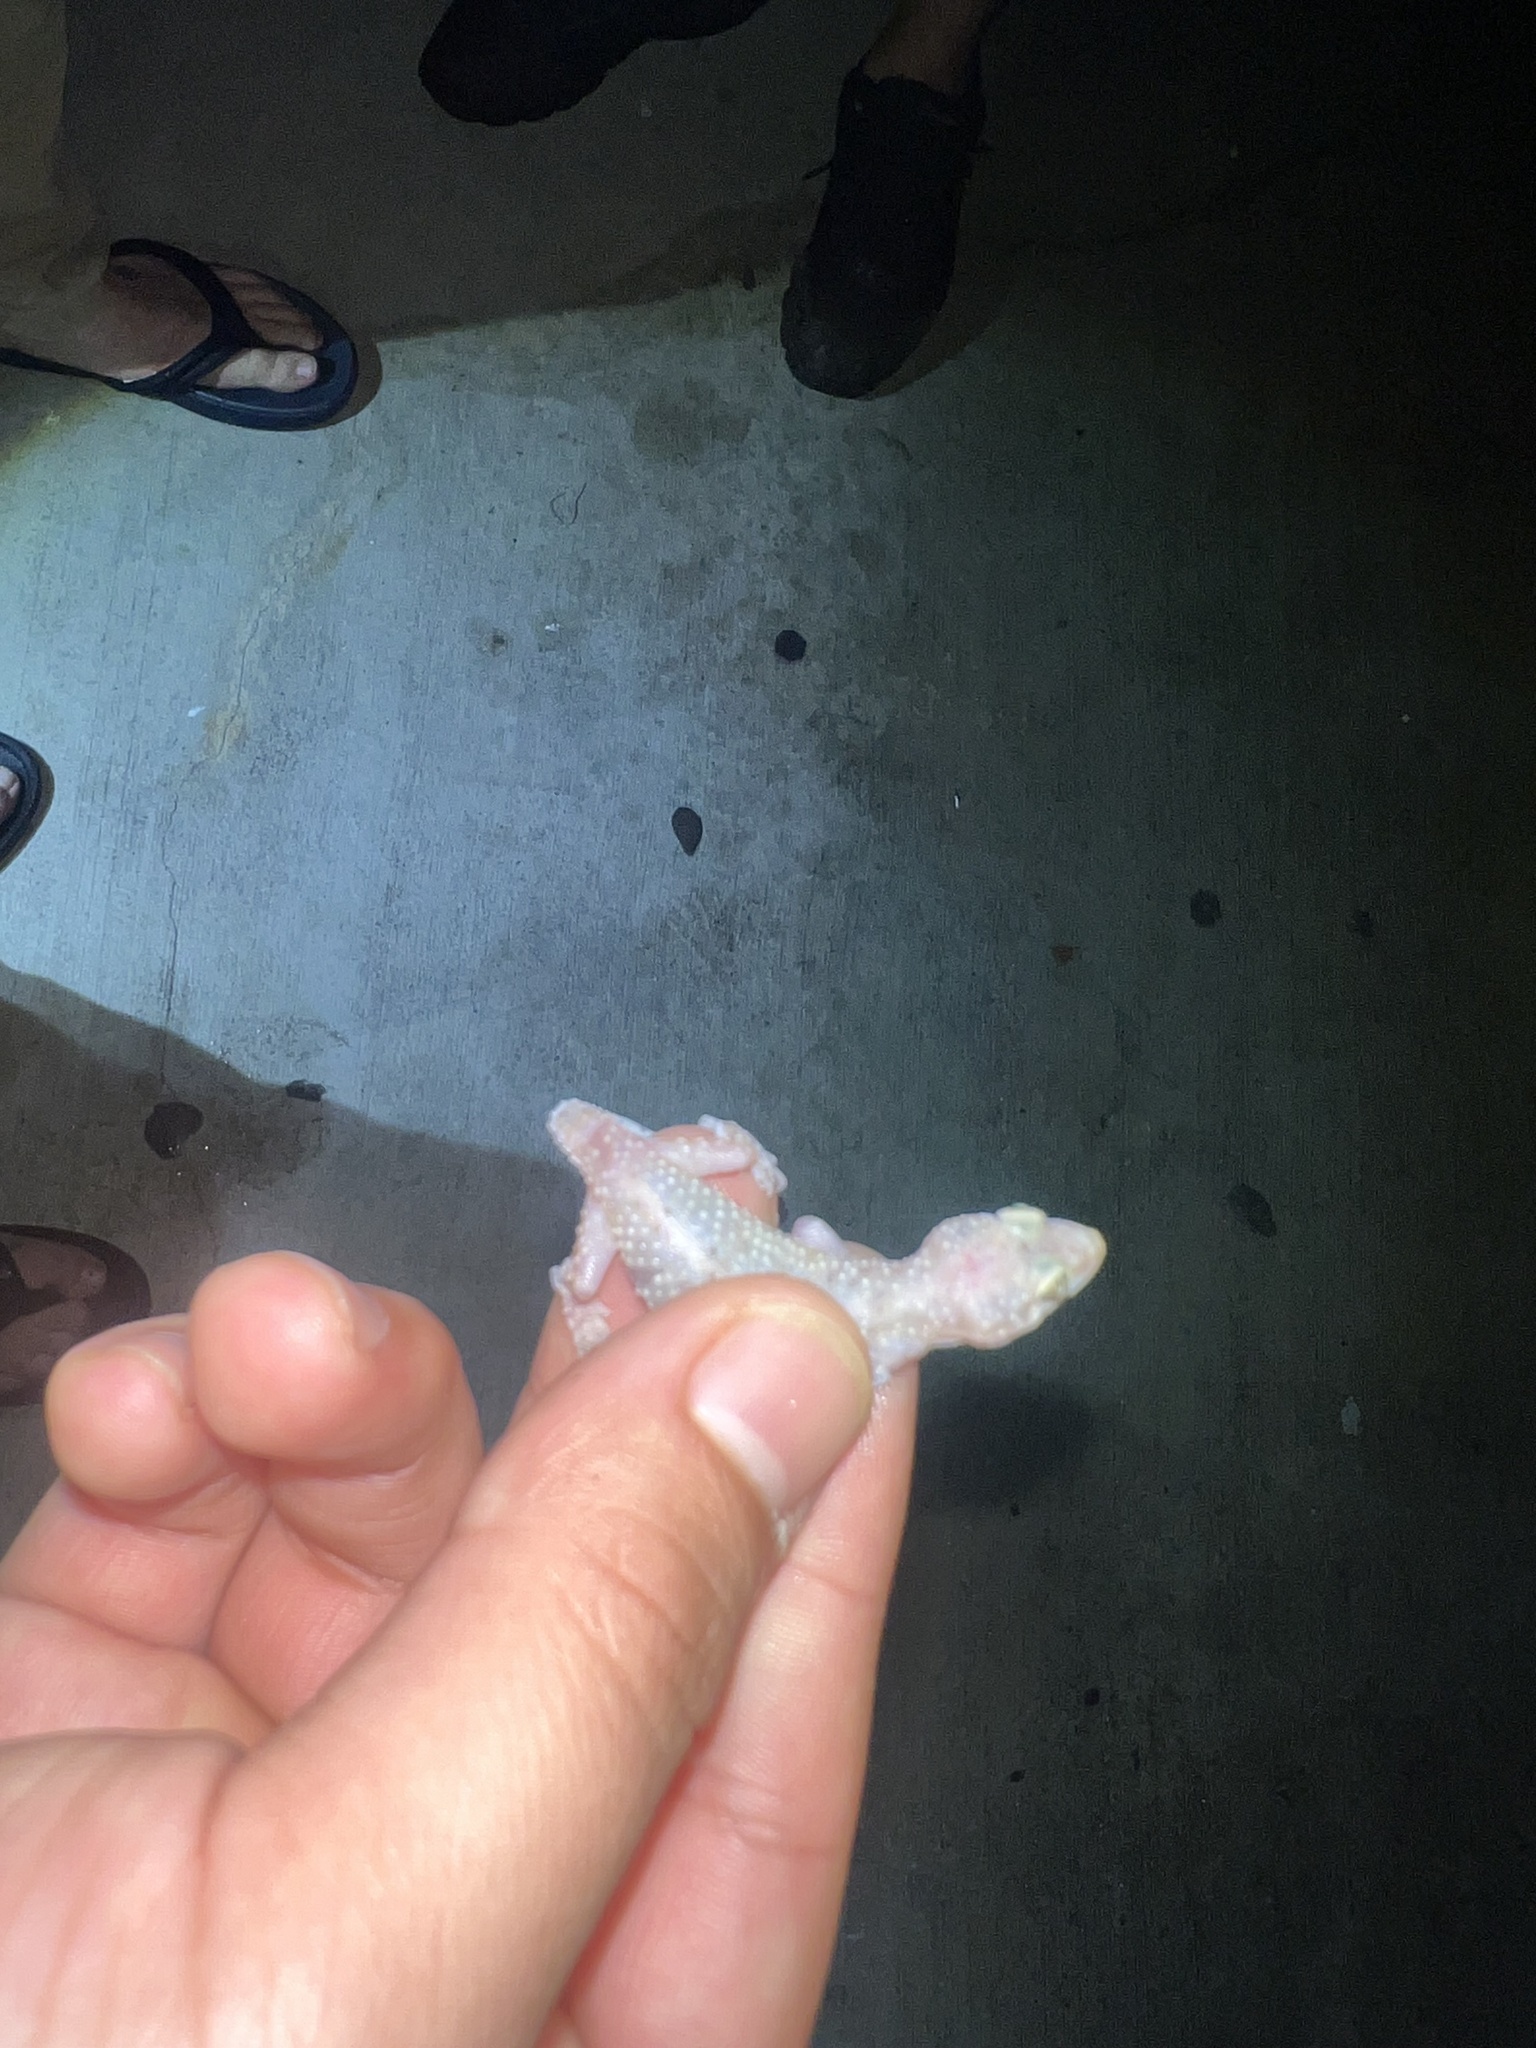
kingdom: Animalia
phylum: Chordata
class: Squamata
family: Gekkonidae
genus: Hemidactylus
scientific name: Hemidactylus turcicus
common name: Turkish gecko
